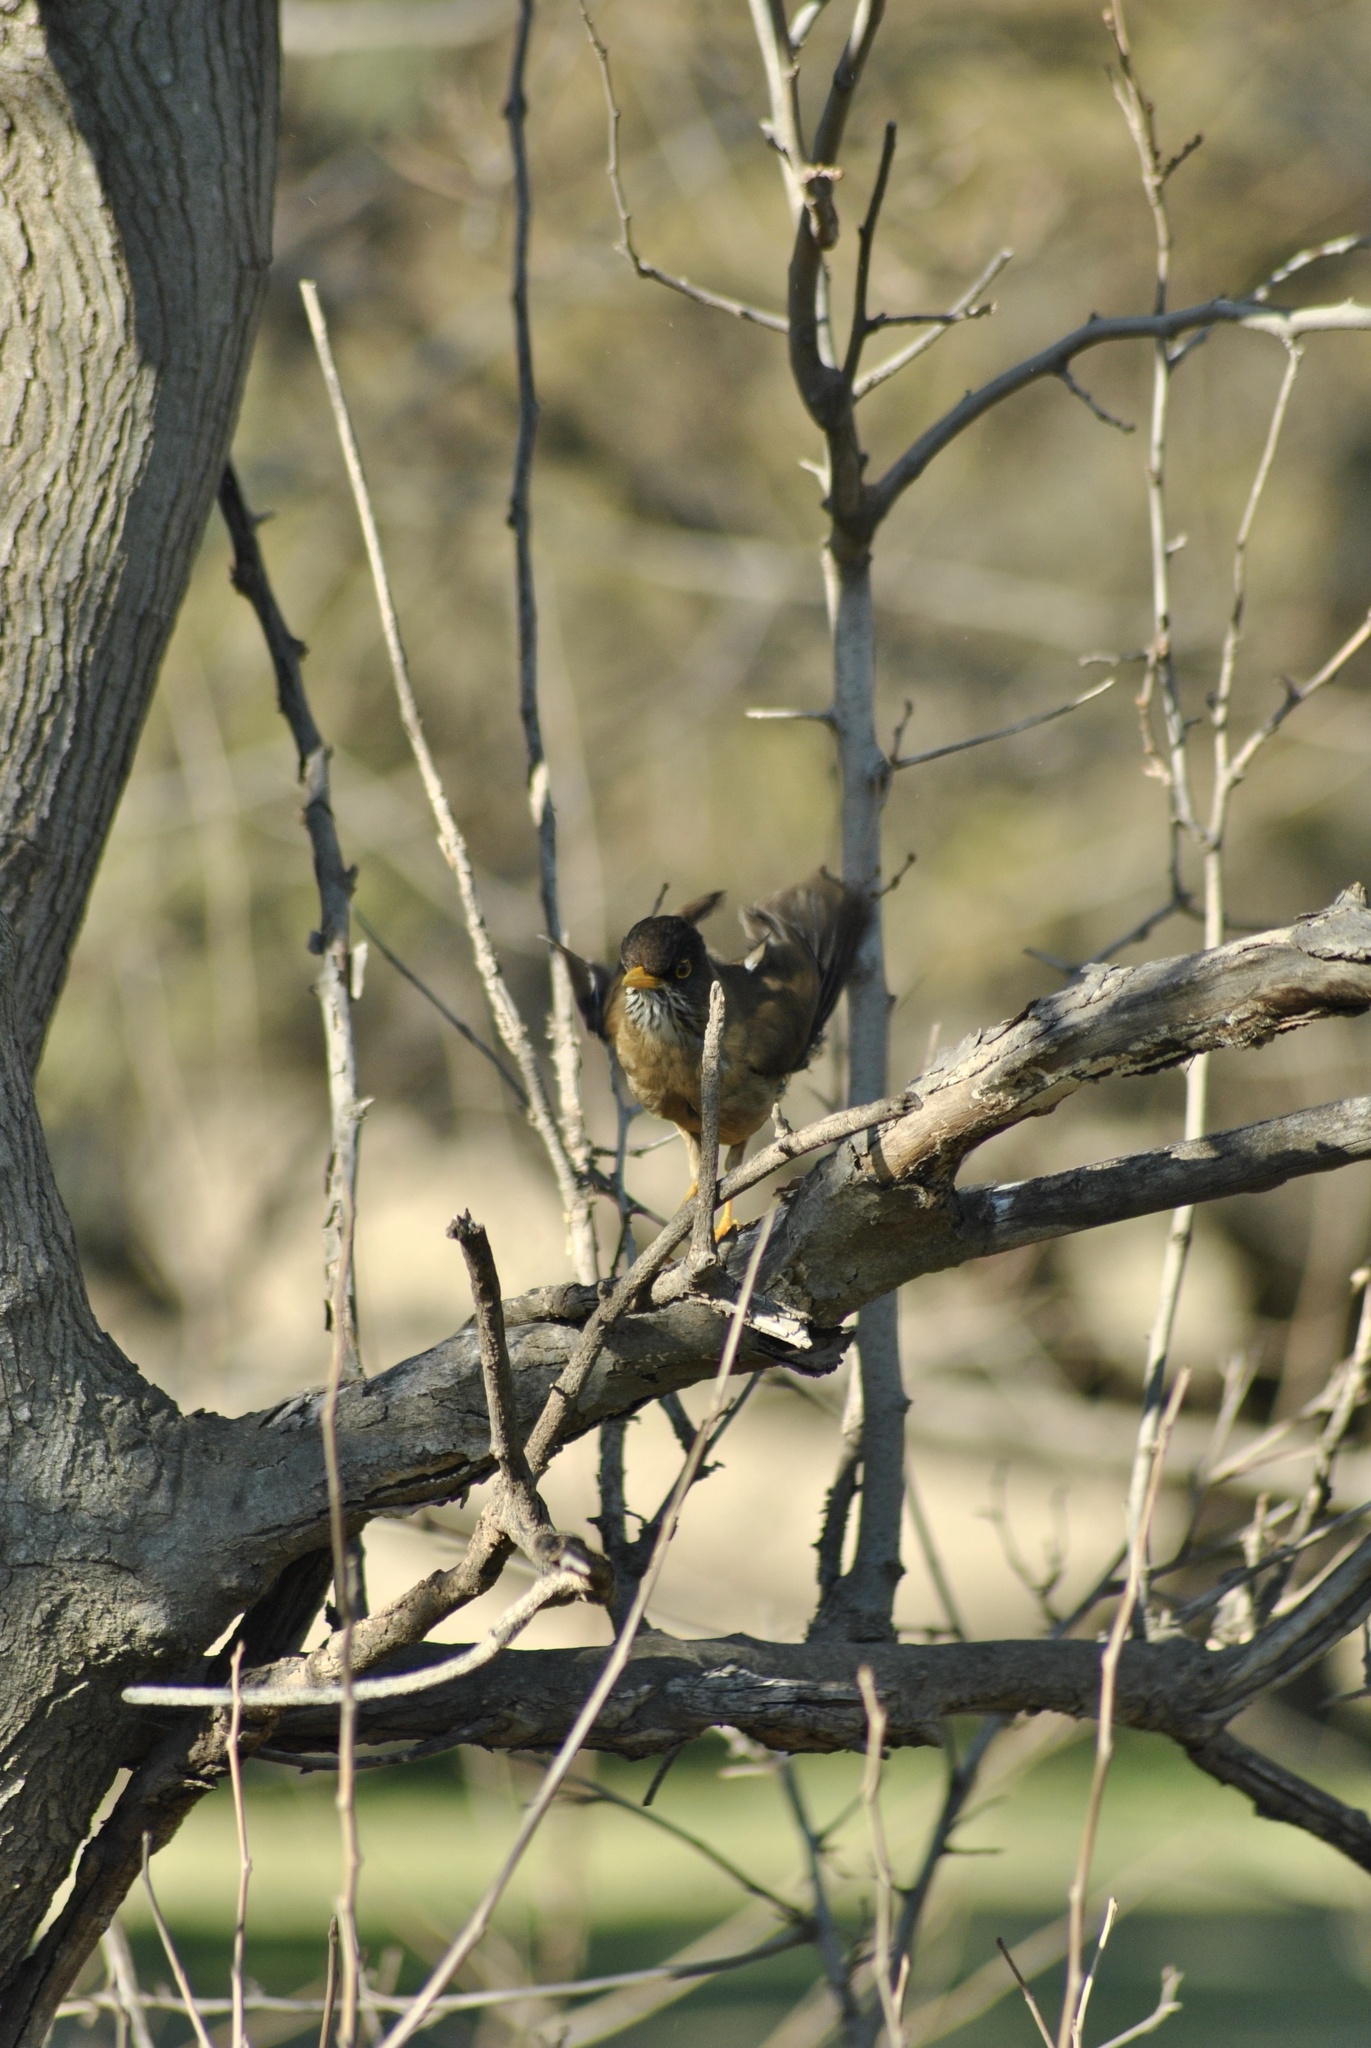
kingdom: Animalia
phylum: Chordata
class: Aves
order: Passeriformes
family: Turdidae
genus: Turdus
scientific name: Turdus falcklandii
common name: Austral thrush
